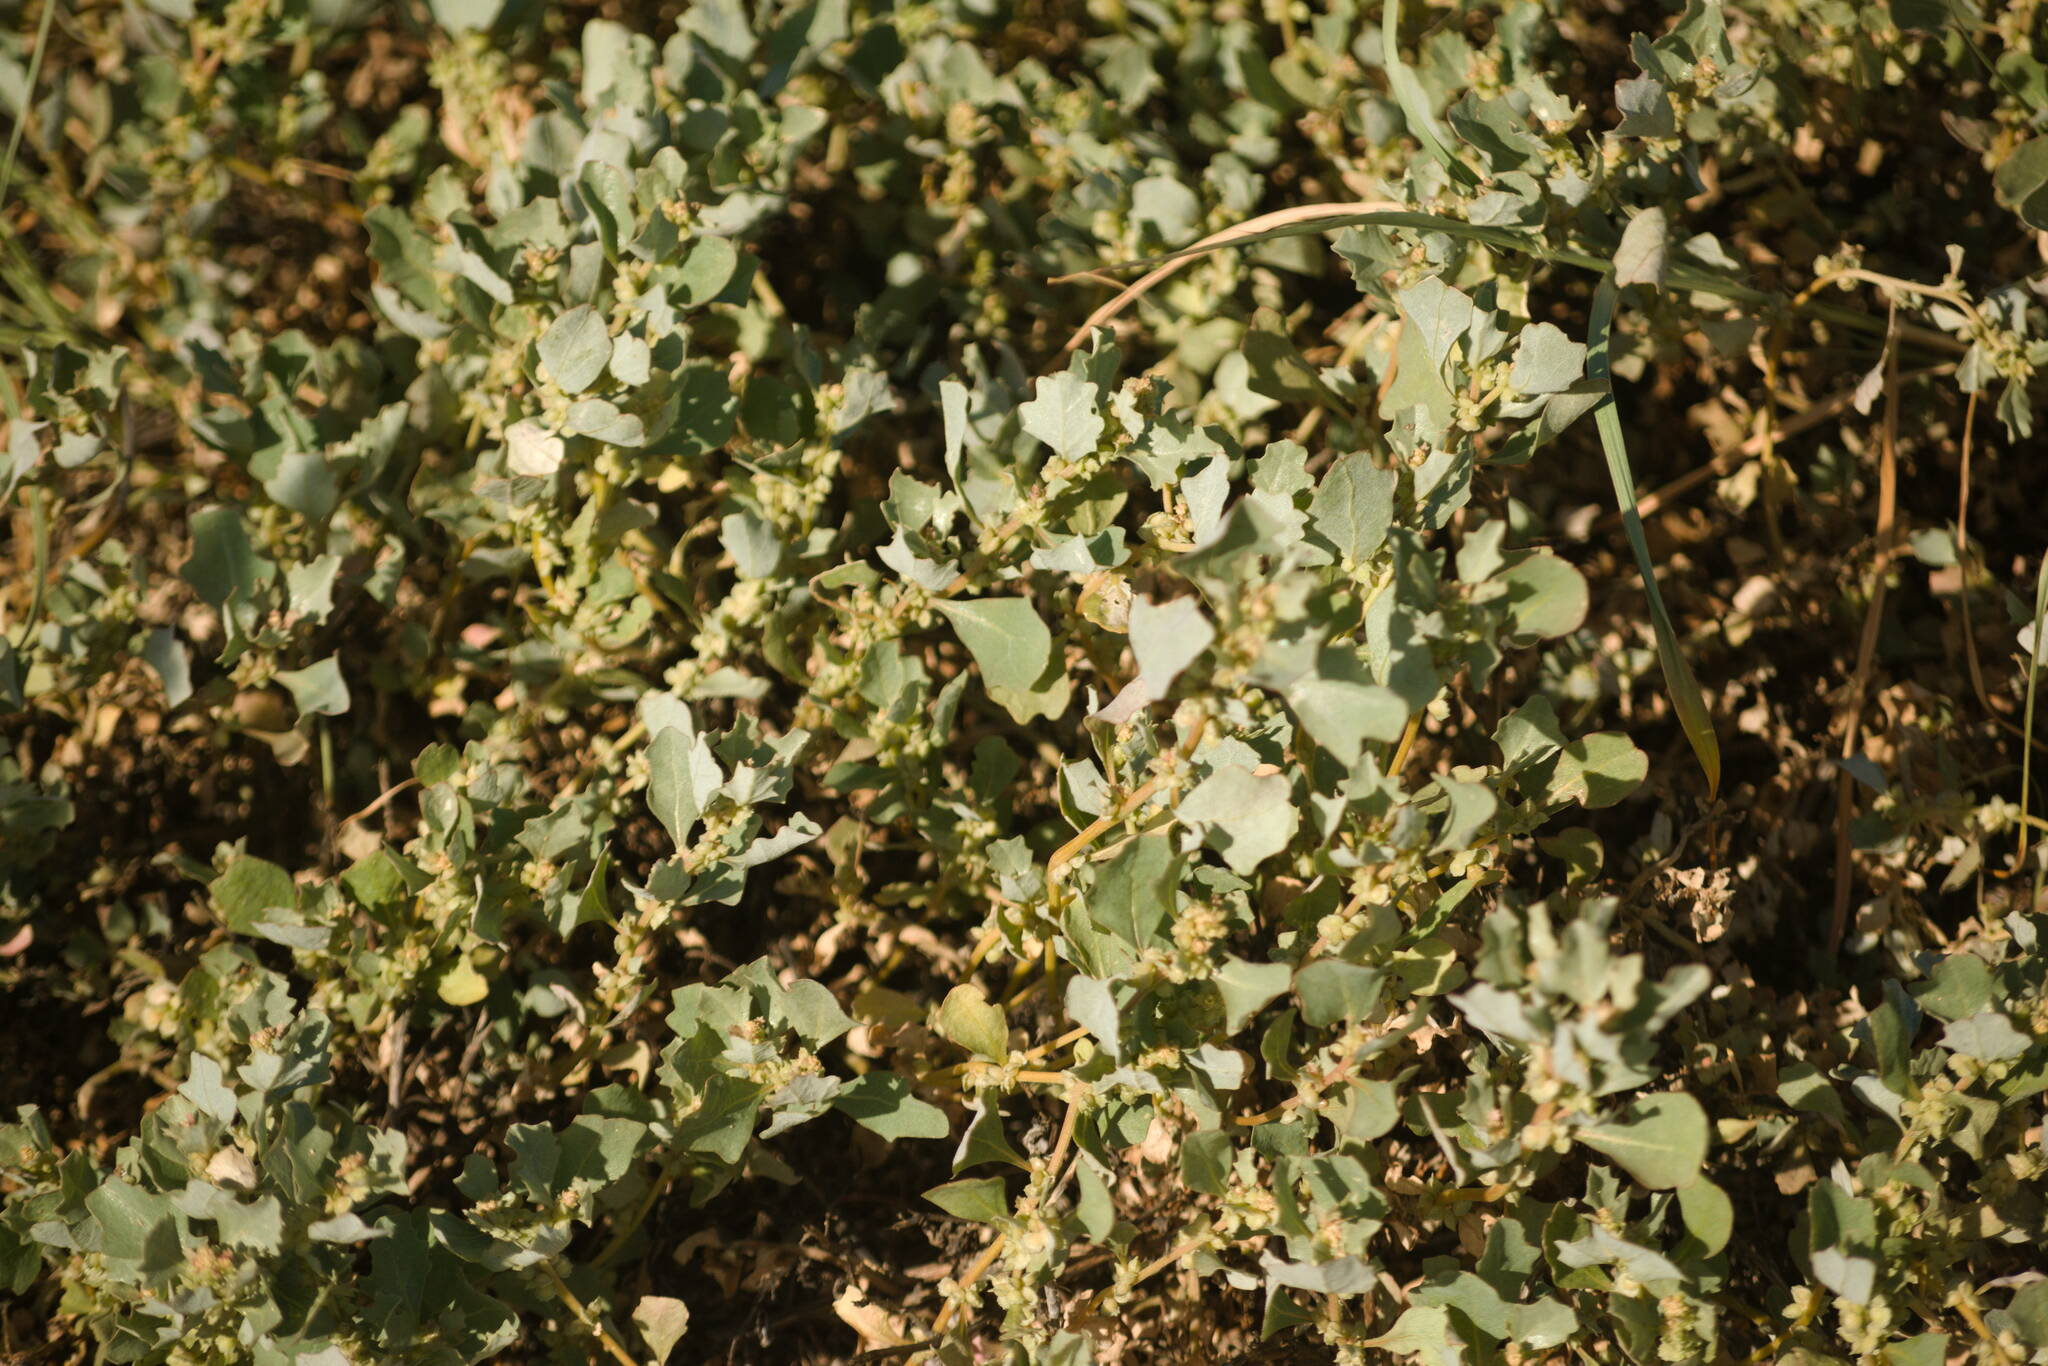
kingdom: Plantae
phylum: Tracheophyta
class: Magnoliopsida
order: Caryophyllales
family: Amaranthaceae
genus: Atriplex
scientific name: Atriplex muelleri
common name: Mueller's saltbush
